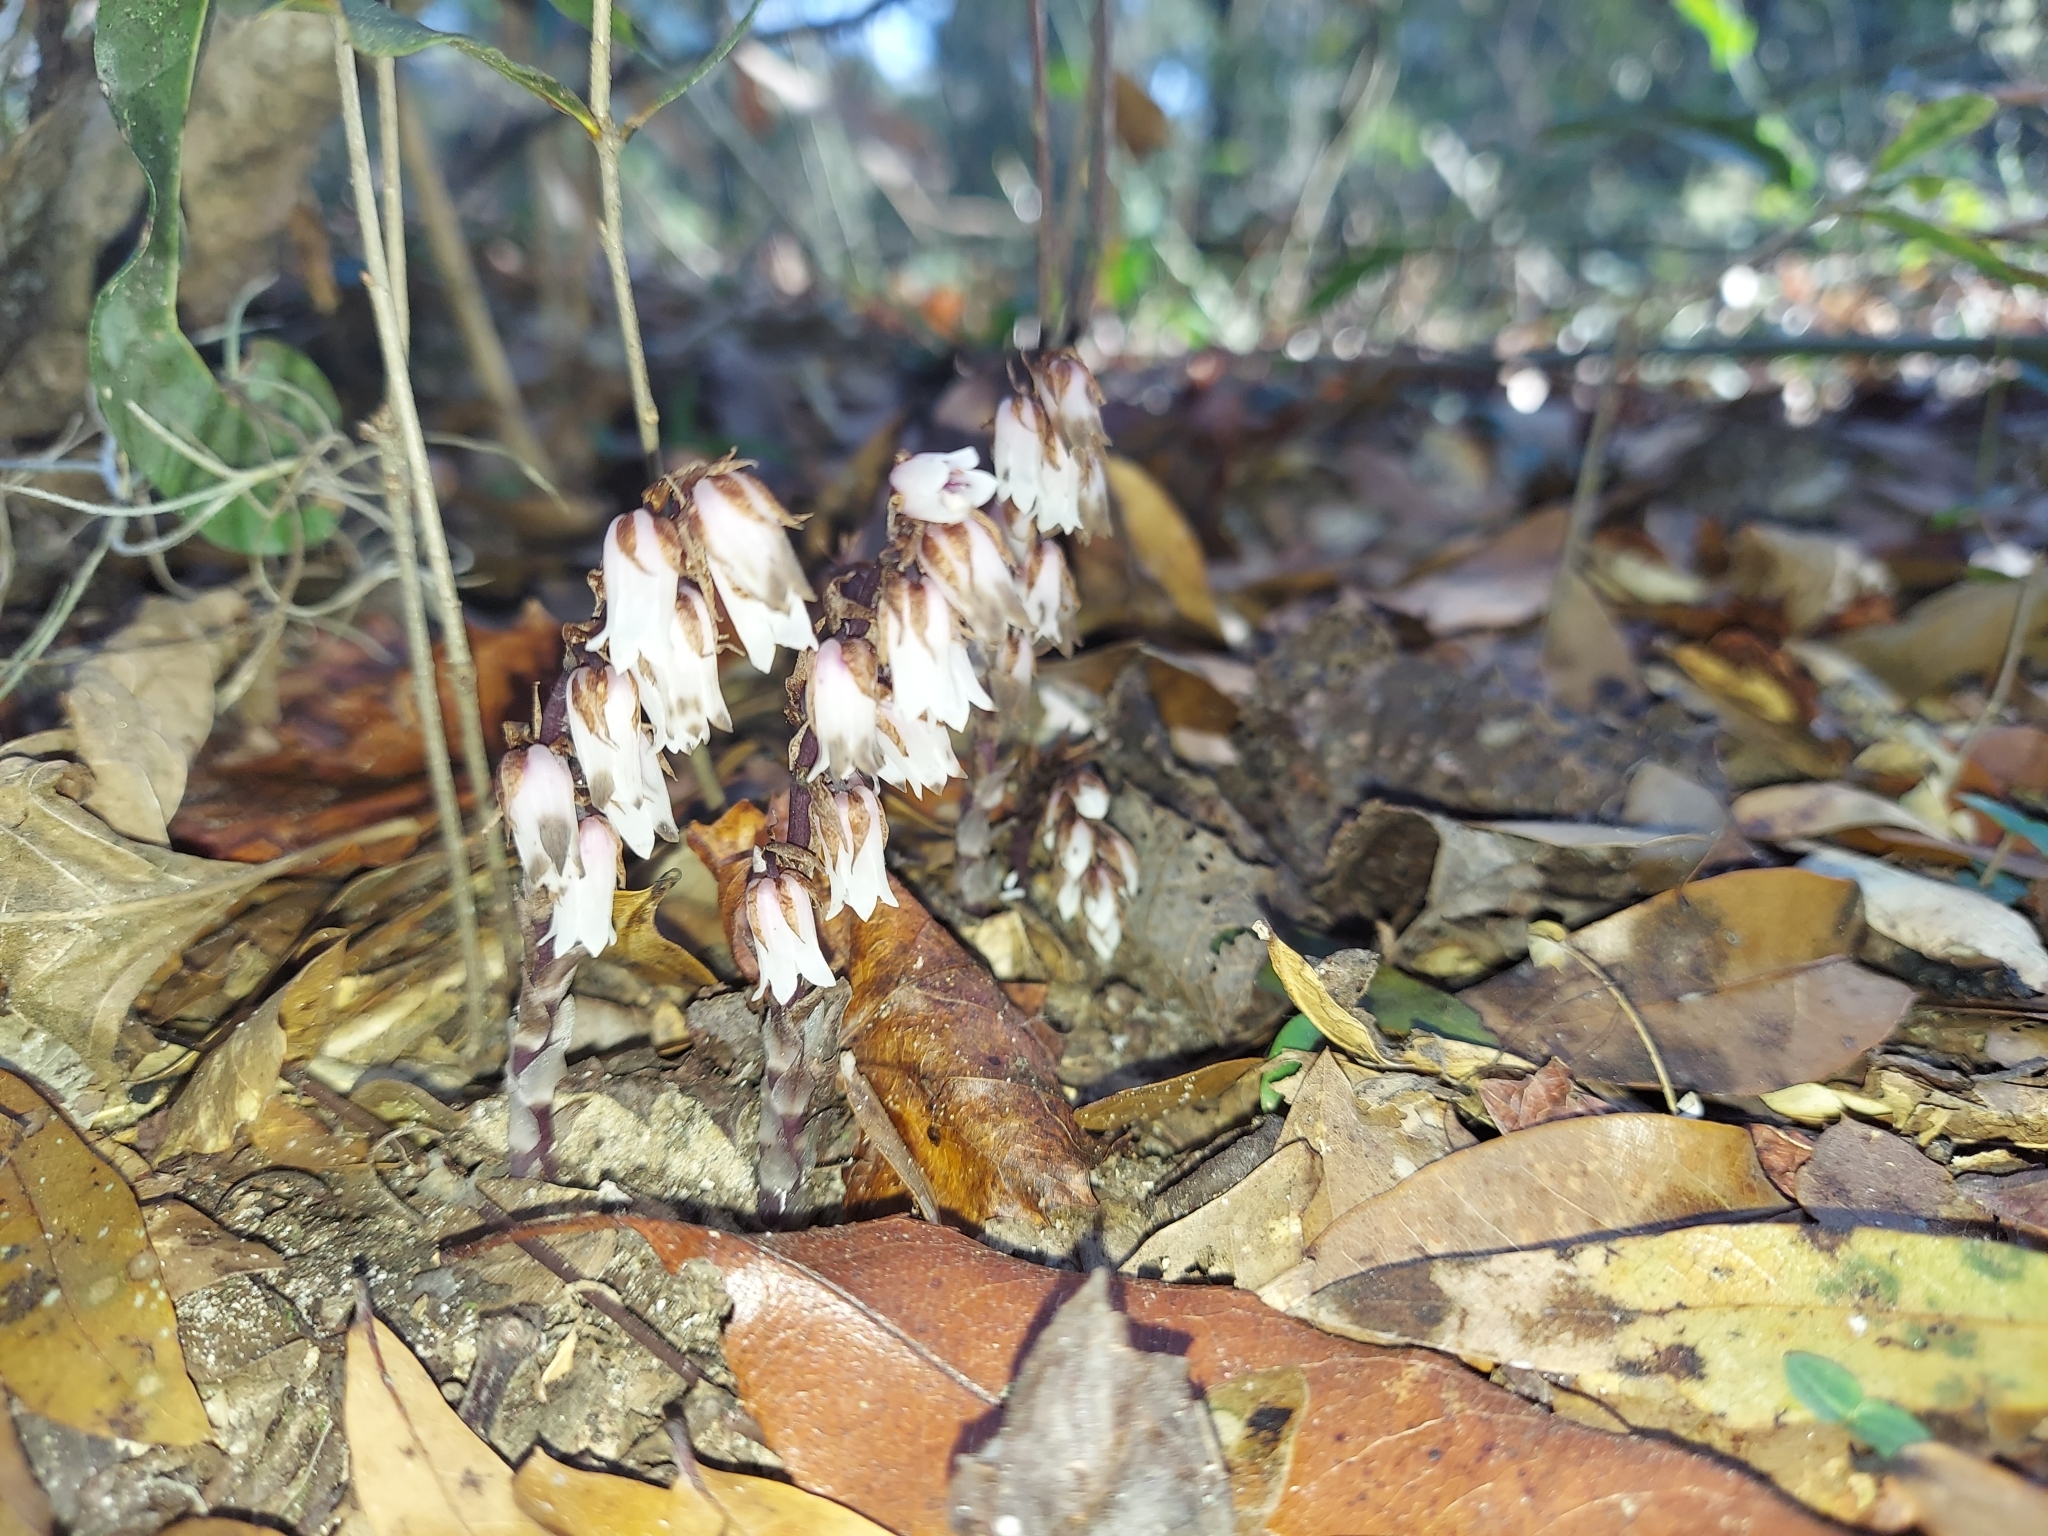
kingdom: Plantae
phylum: Tracheophyta
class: Magnoliopsida
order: Ericales
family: Ericaceae
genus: Monotropsis
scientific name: Monotropsis odorata
